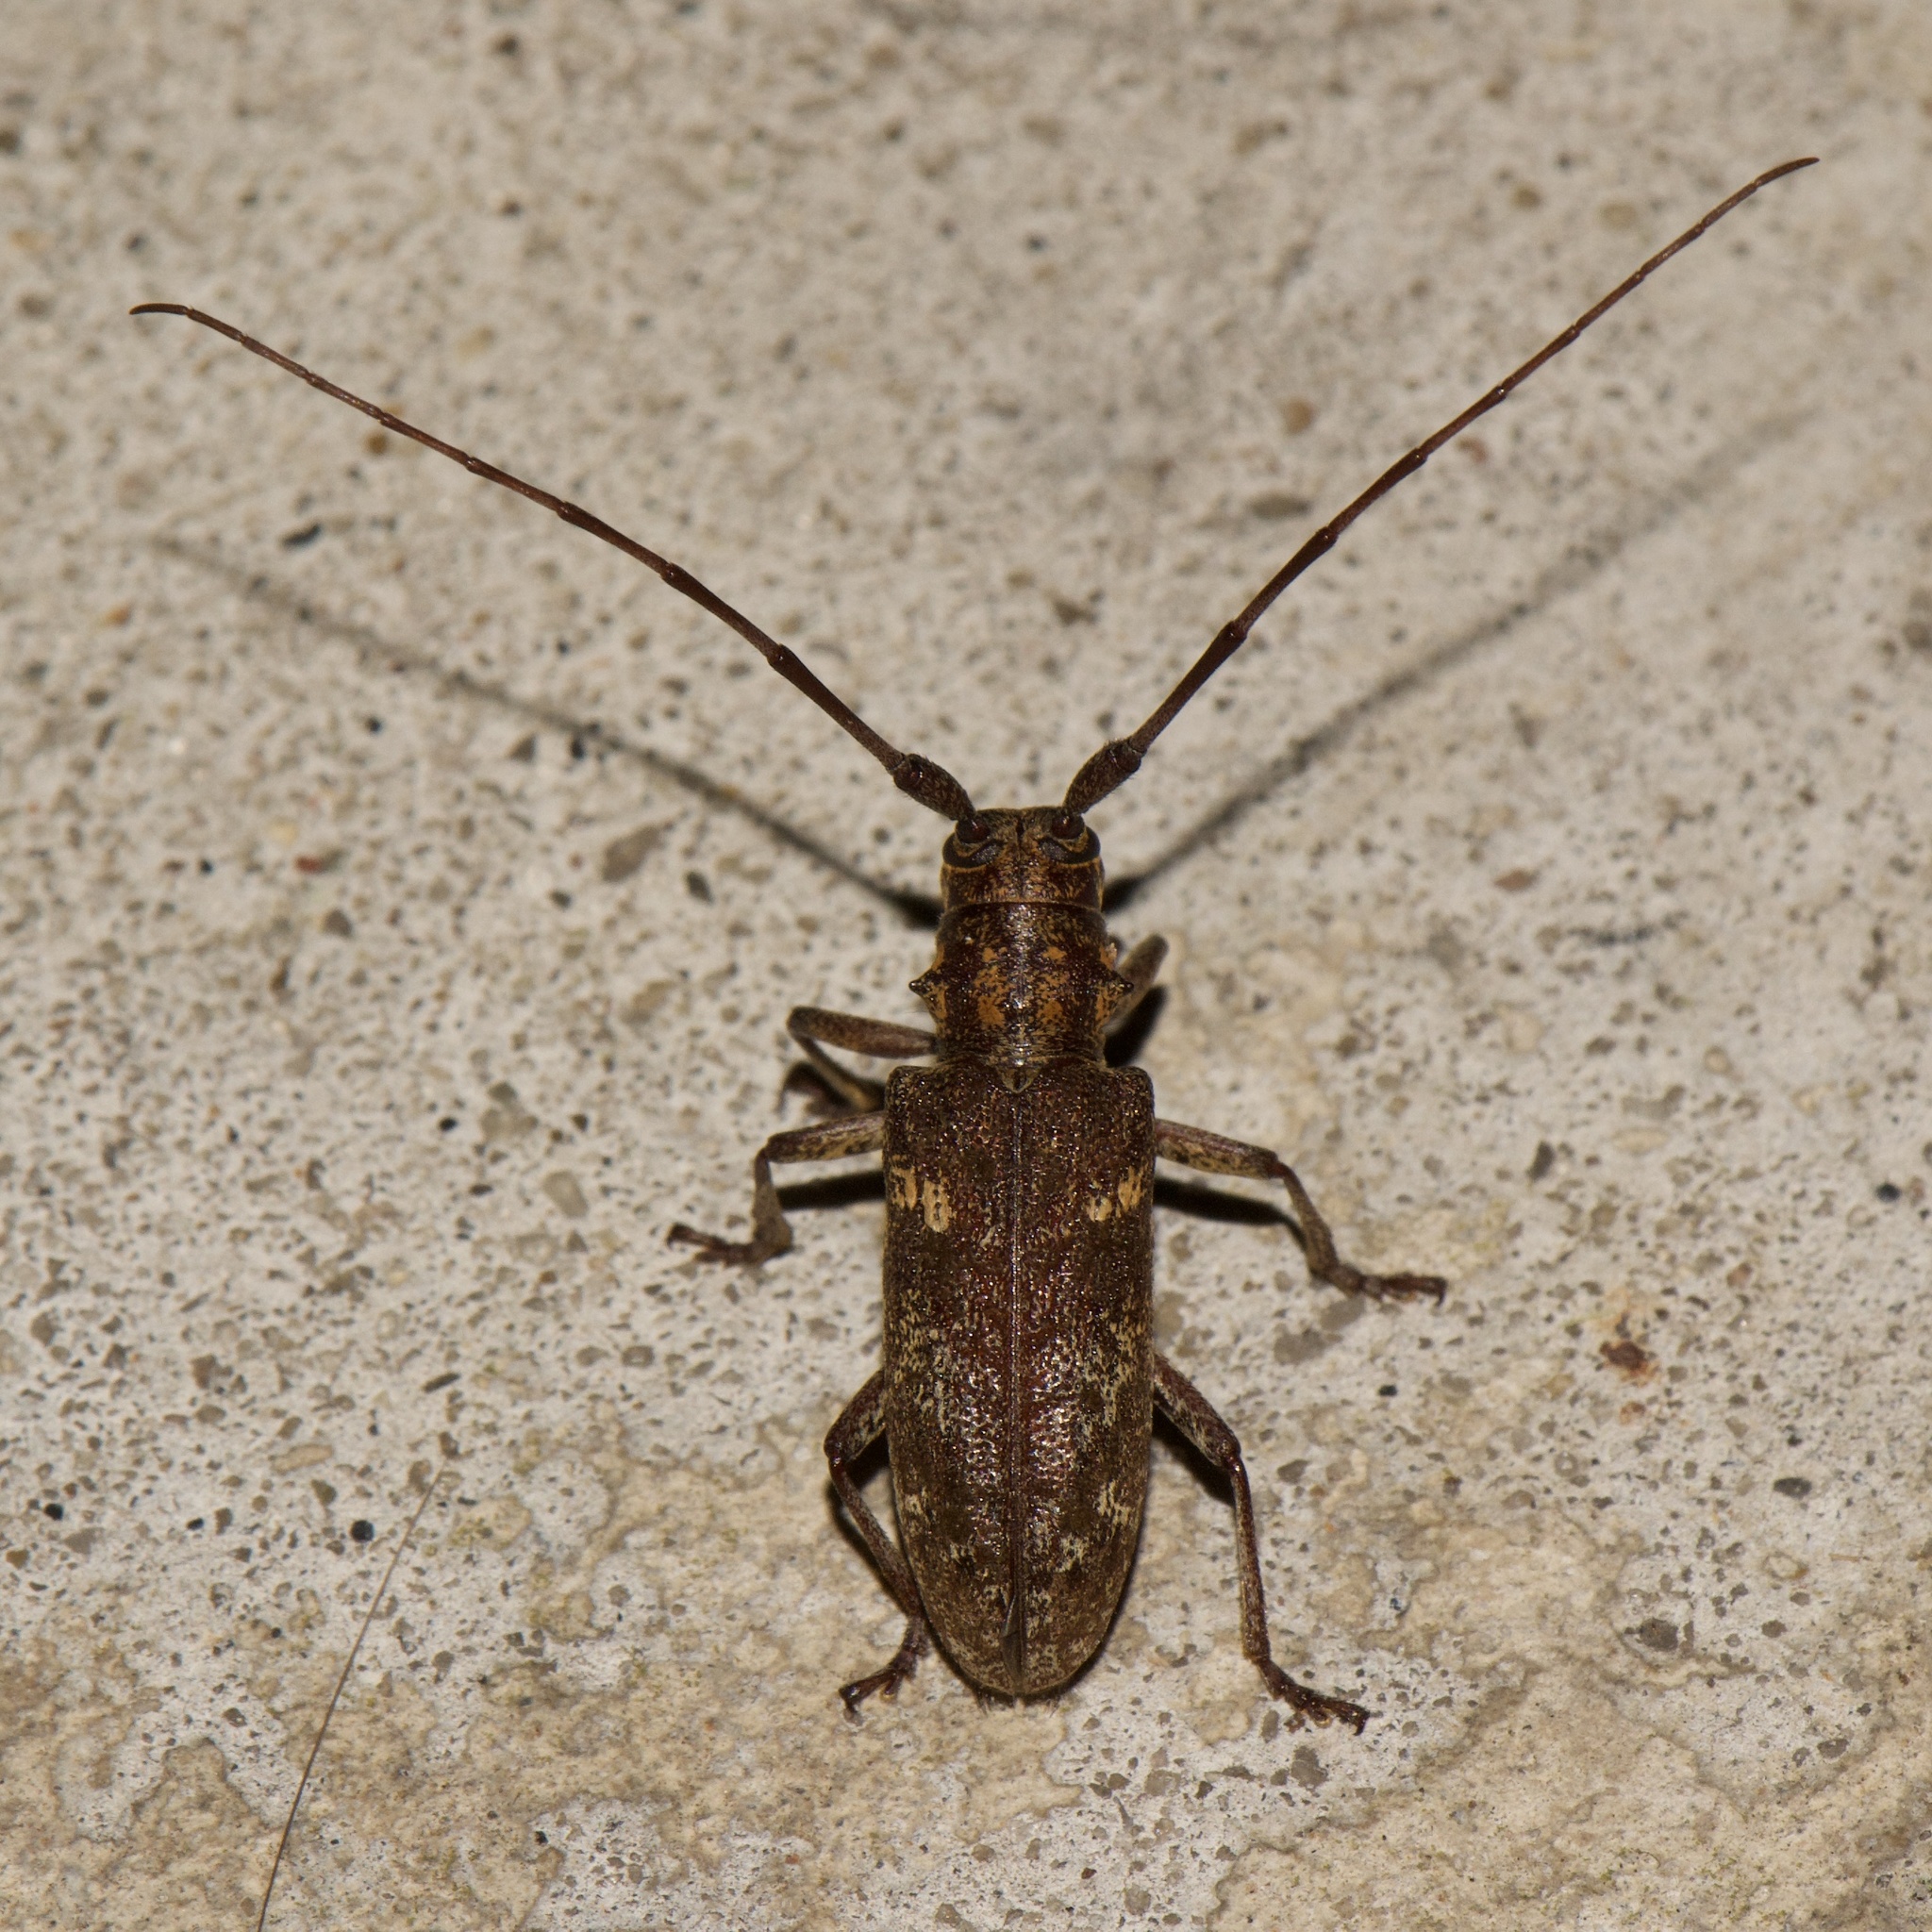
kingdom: Animalia
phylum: Arthropoda
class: Insecta
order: Coleoptera
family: Cerambycidae
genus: Monochamus
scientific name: Monochamus carolinensis
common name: Carolina pine sawyer
